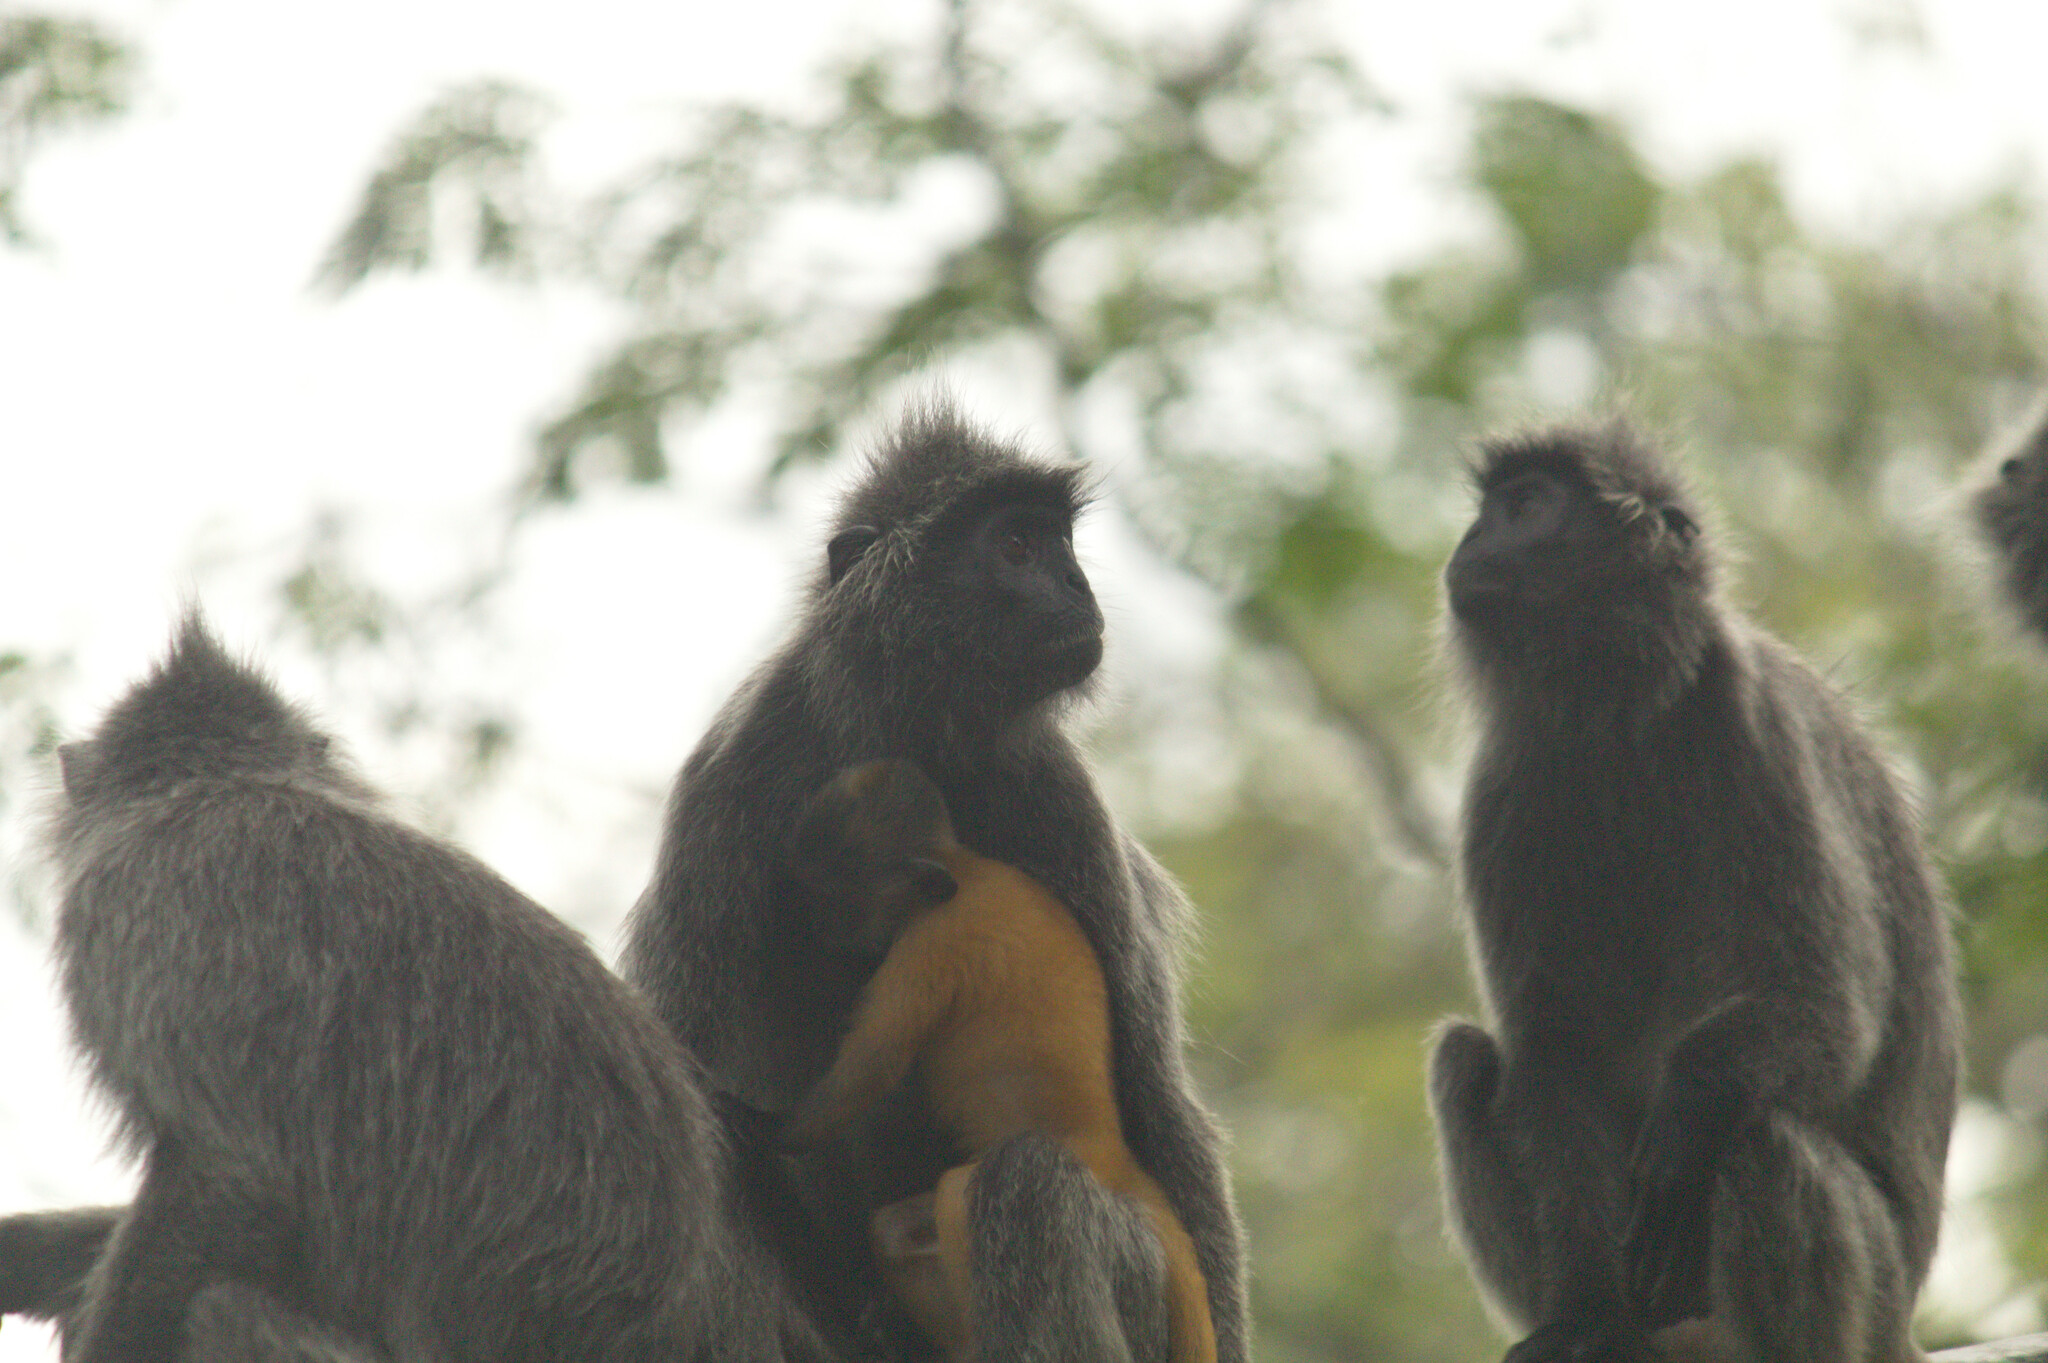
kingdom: Animalia
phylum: Chordata
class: Mammalia
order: Primates
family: Cercopithecidae
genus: Trachypithecus
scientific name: Trachypithecus selangorensis
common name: Selangor silvery langur
